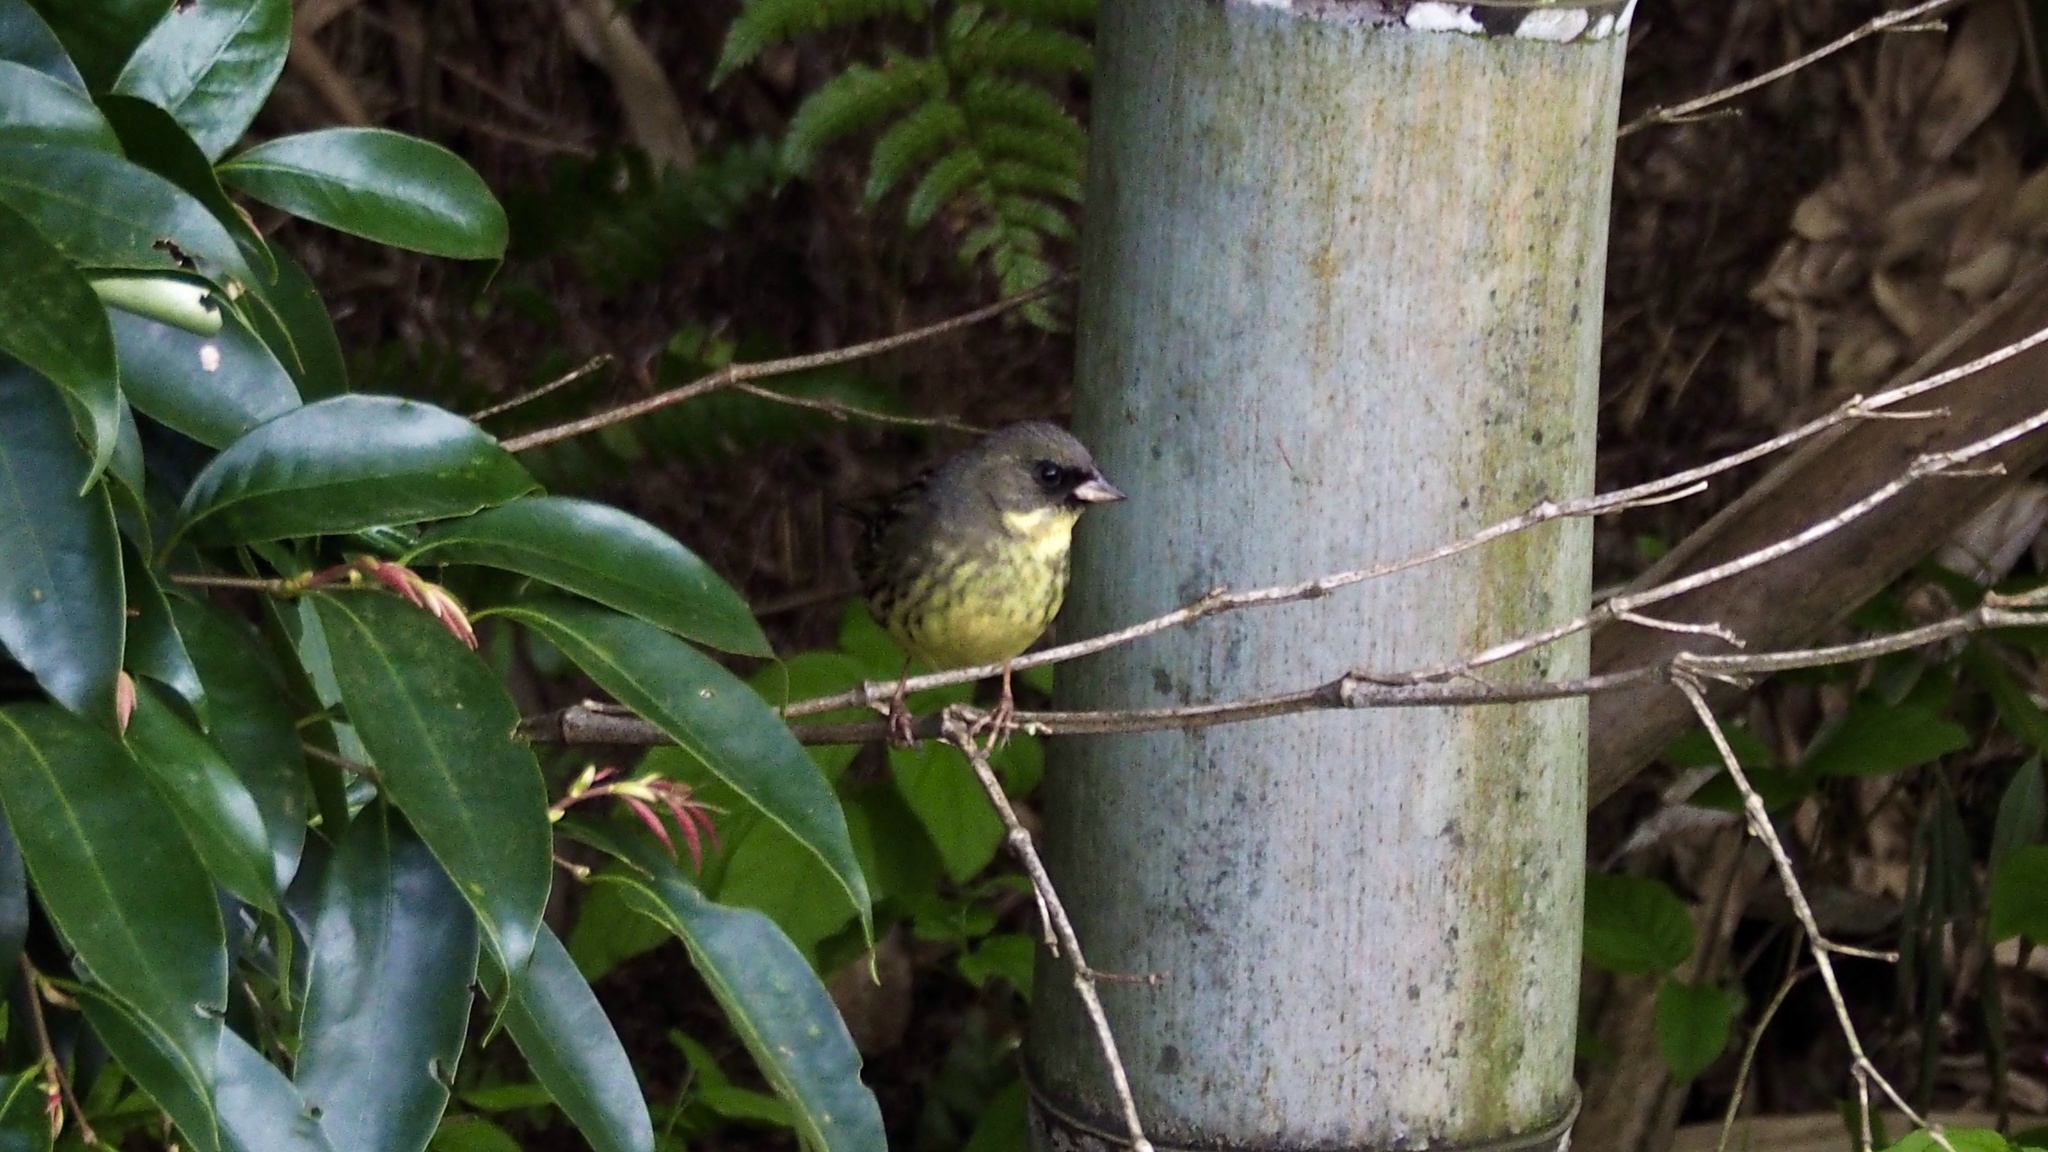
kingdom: Animalia
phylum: Chordata
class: Aves
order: Passeriformes
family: Emberizidae
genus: Emberiza
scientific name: Emberiza personata
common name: Masked bunting
